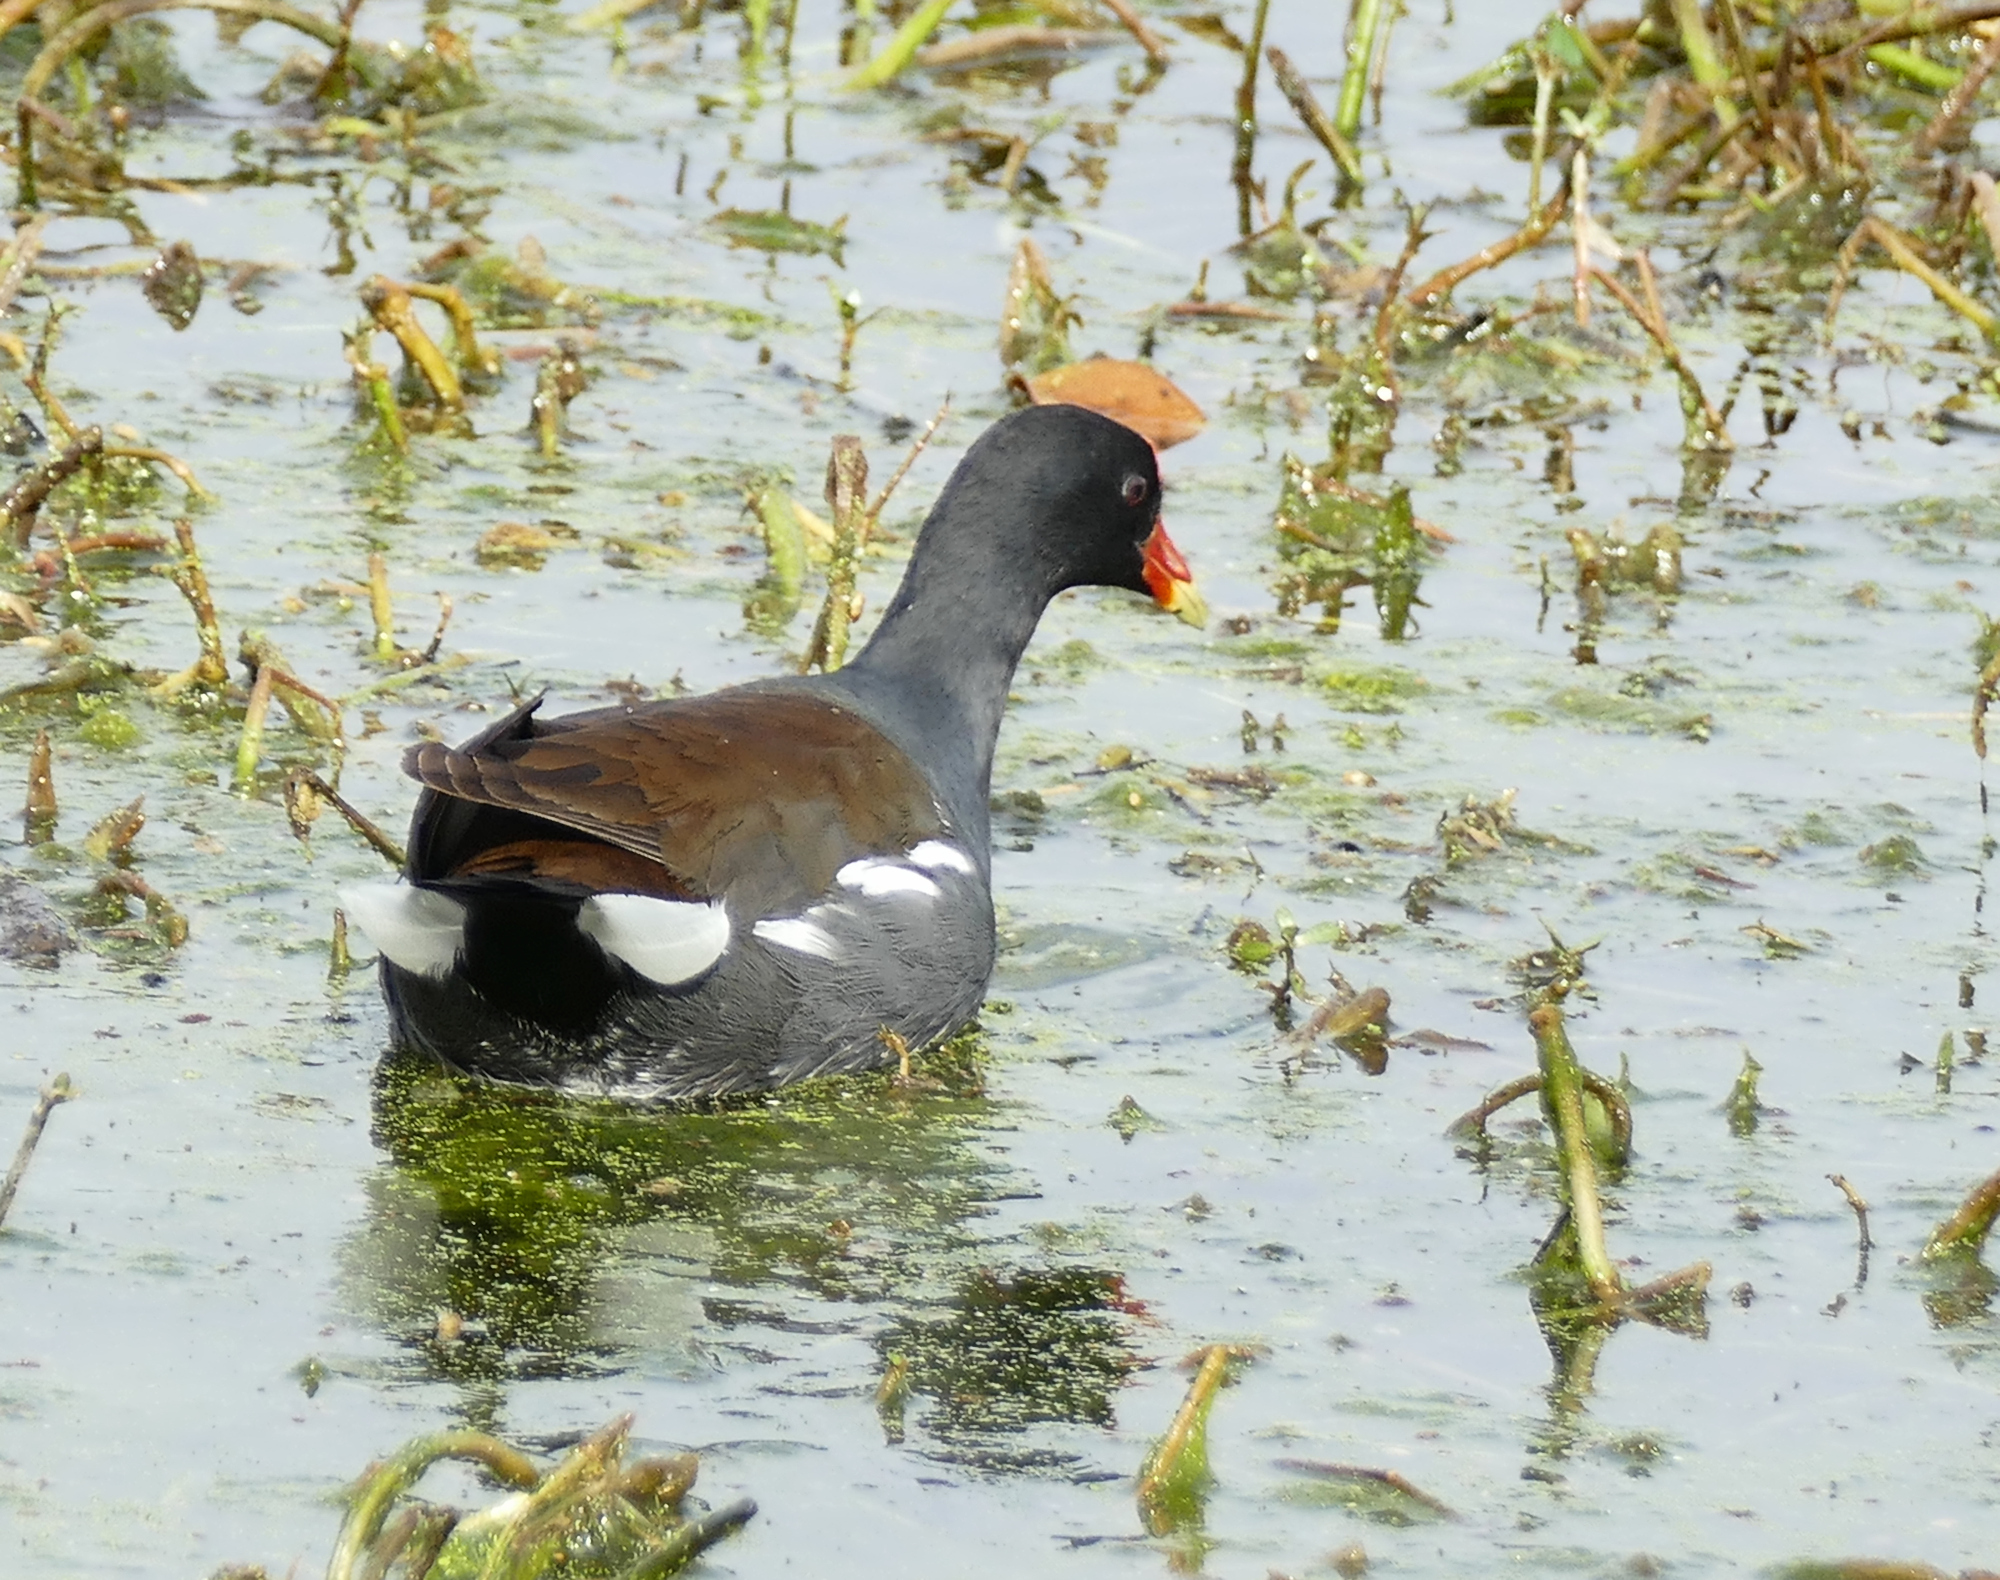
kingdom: Animalia
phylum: Chordata
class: Aves
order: Gruiformes
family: Rallidae
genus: Gallinula
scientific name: Gallinula chloropus
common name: Common moorhen
